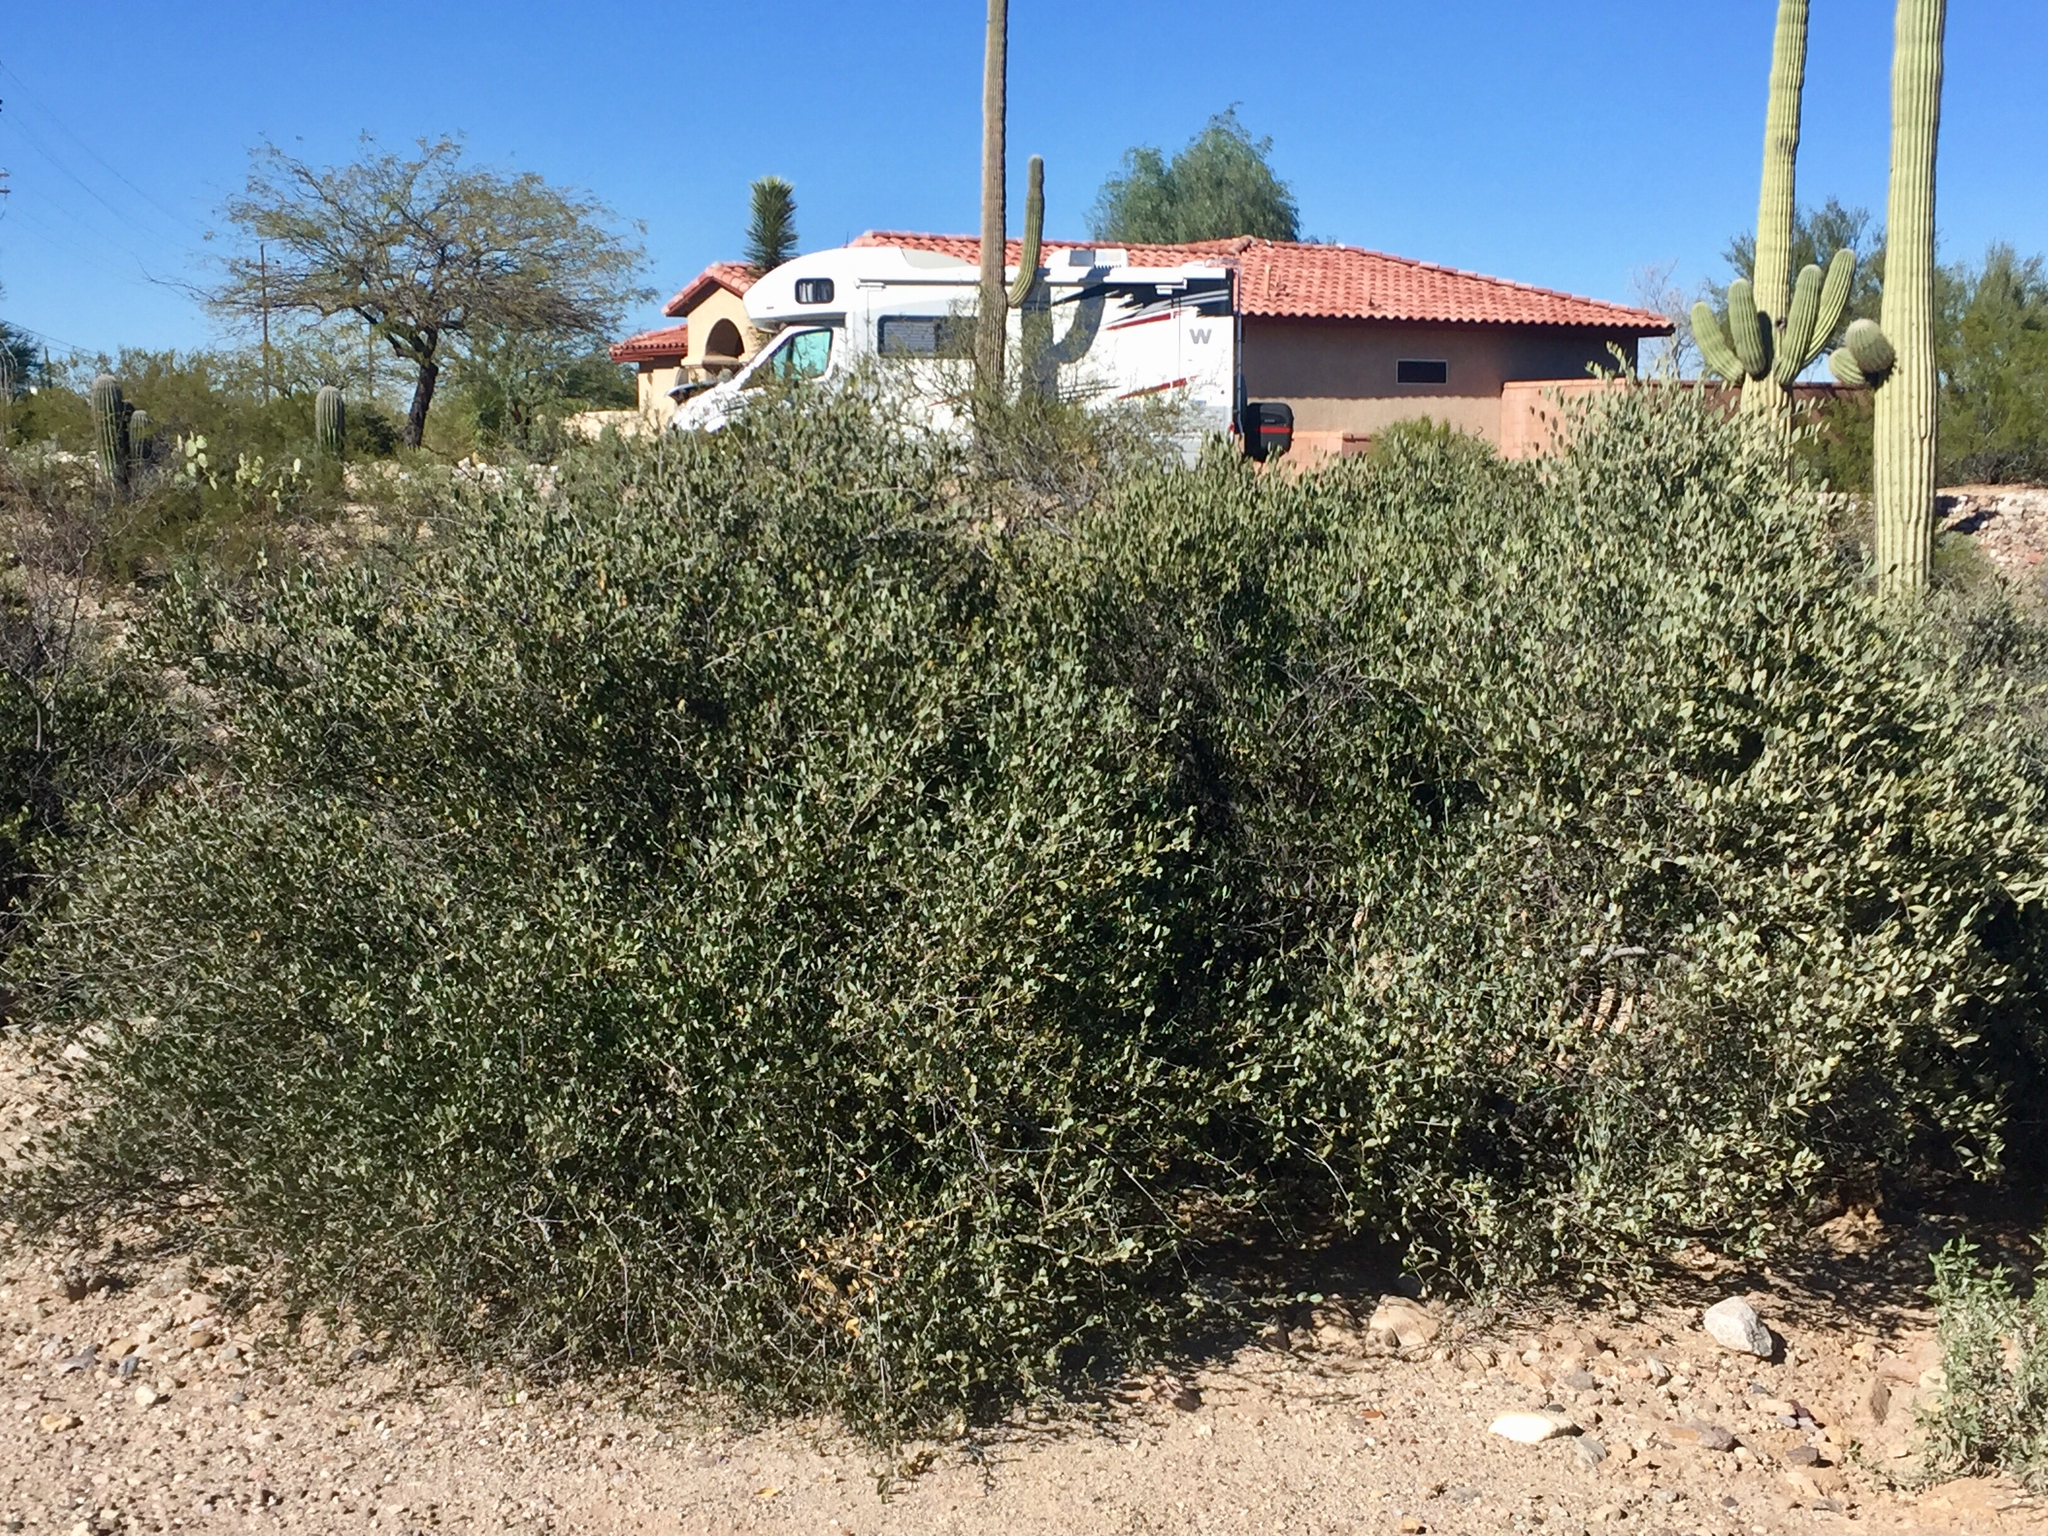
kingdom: Plantae
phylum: Tracheophyta
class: Magnoliopsida
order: Caryophyllales
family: Simmondsiaceae
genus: Simmondsia
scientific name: Simmondsia chinensis
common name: Jojoba
